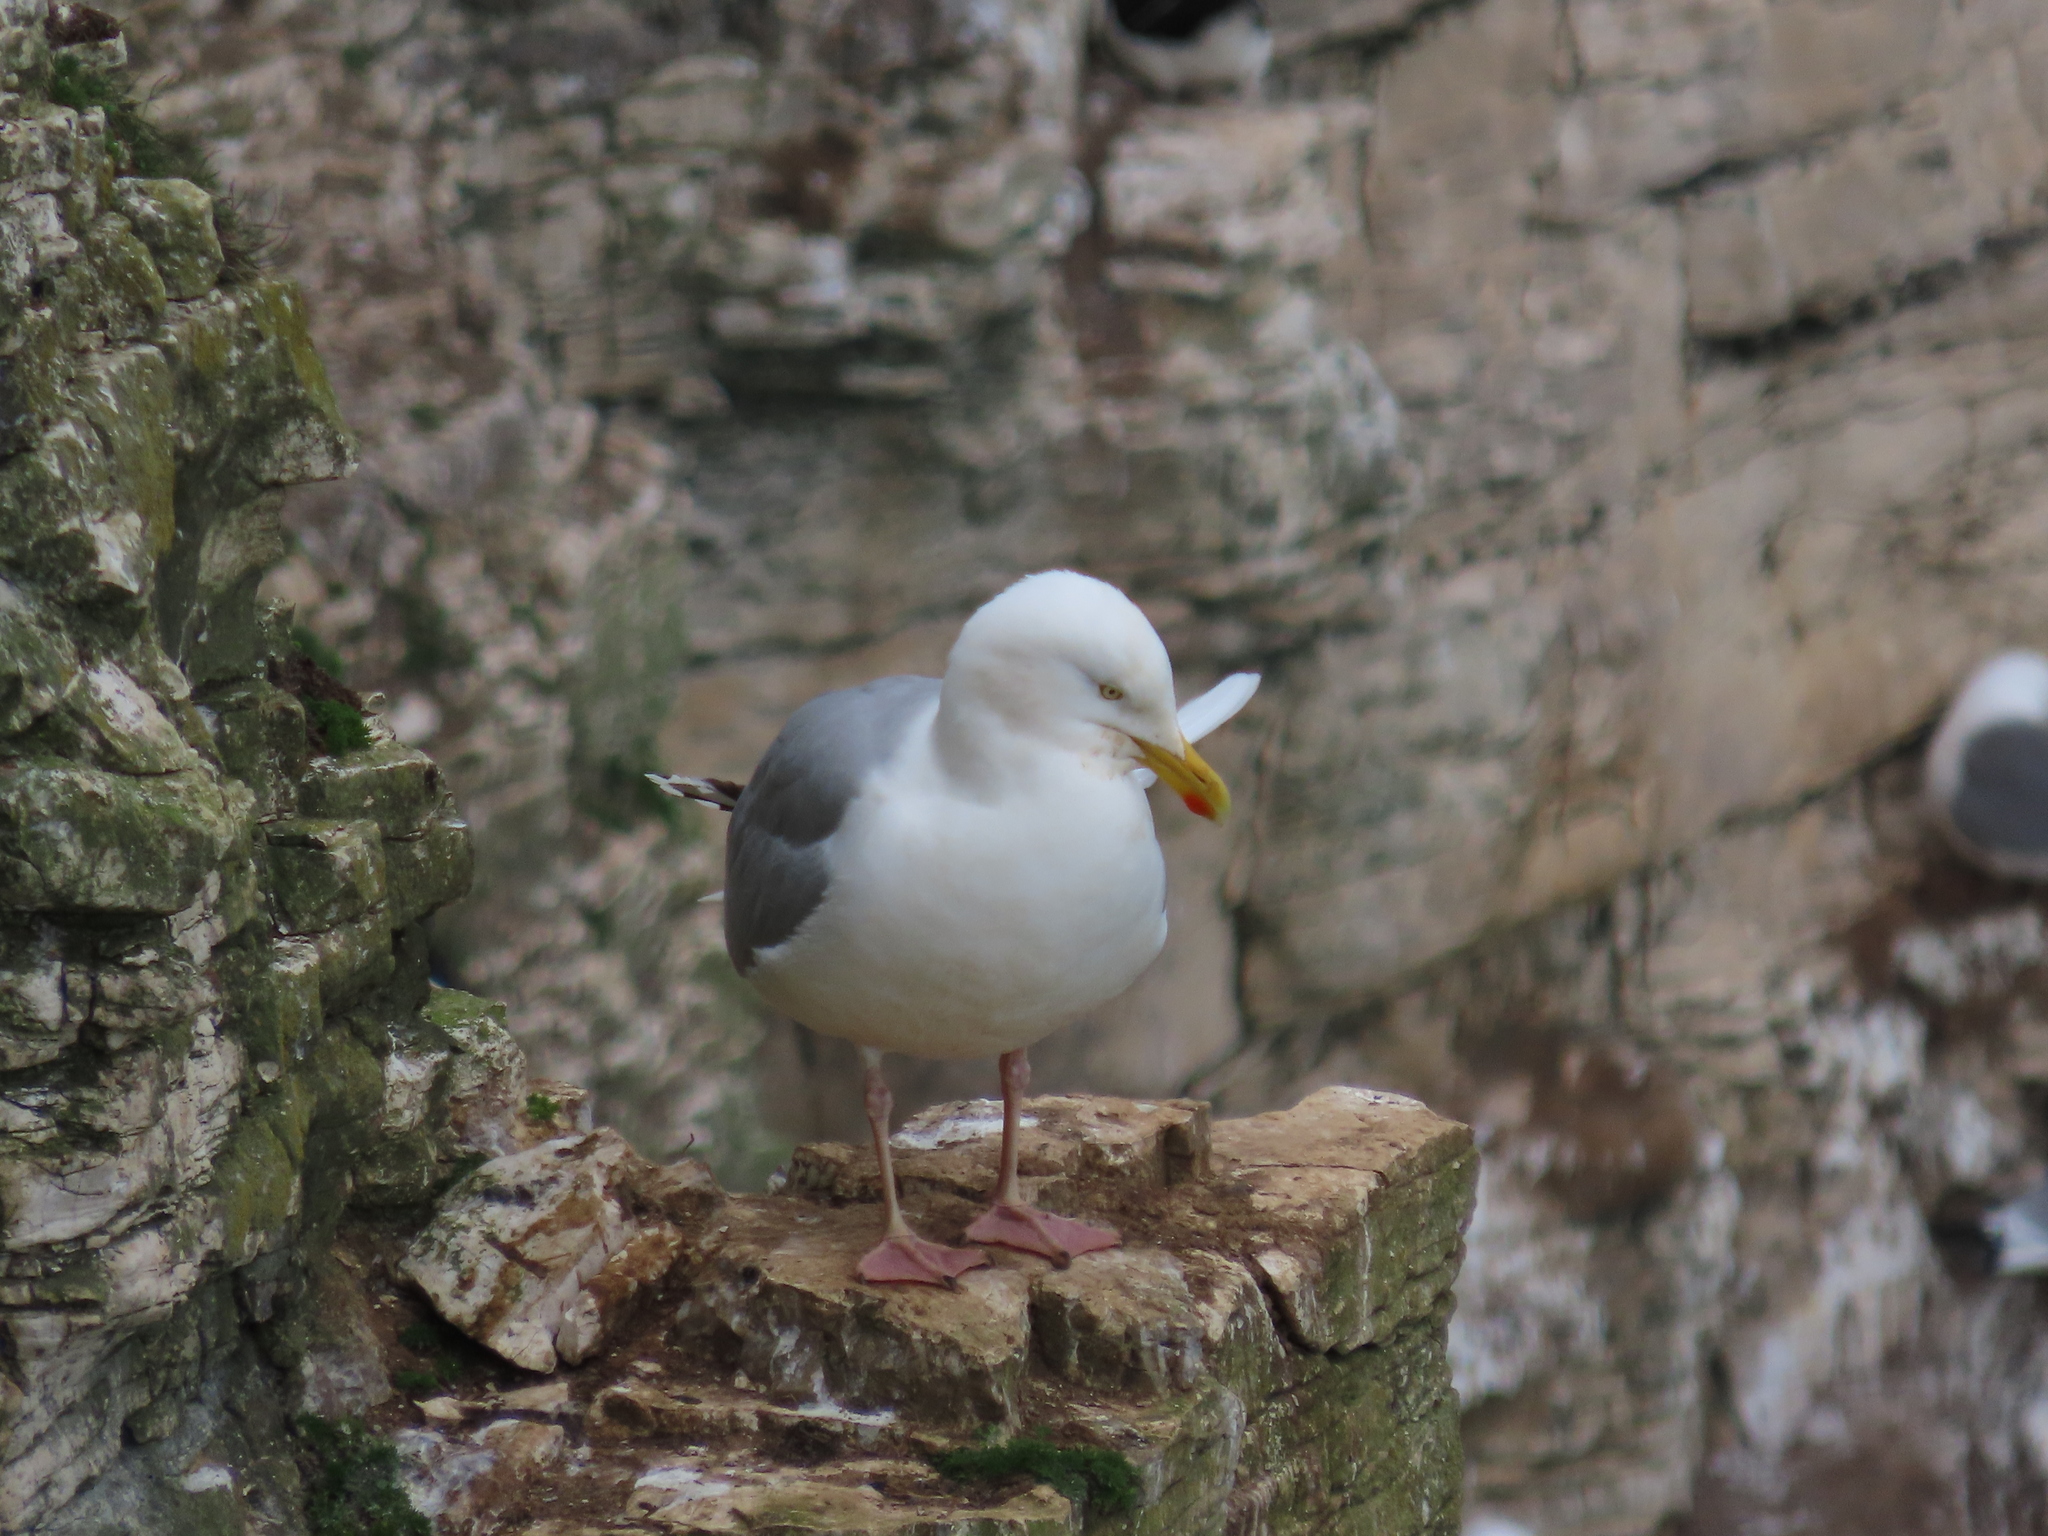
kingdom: Animalia
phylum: Chordata
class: Aves
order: Charadriiformes
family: Laridae
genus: Larus
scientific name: Larus argentatus
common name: Herring gull
